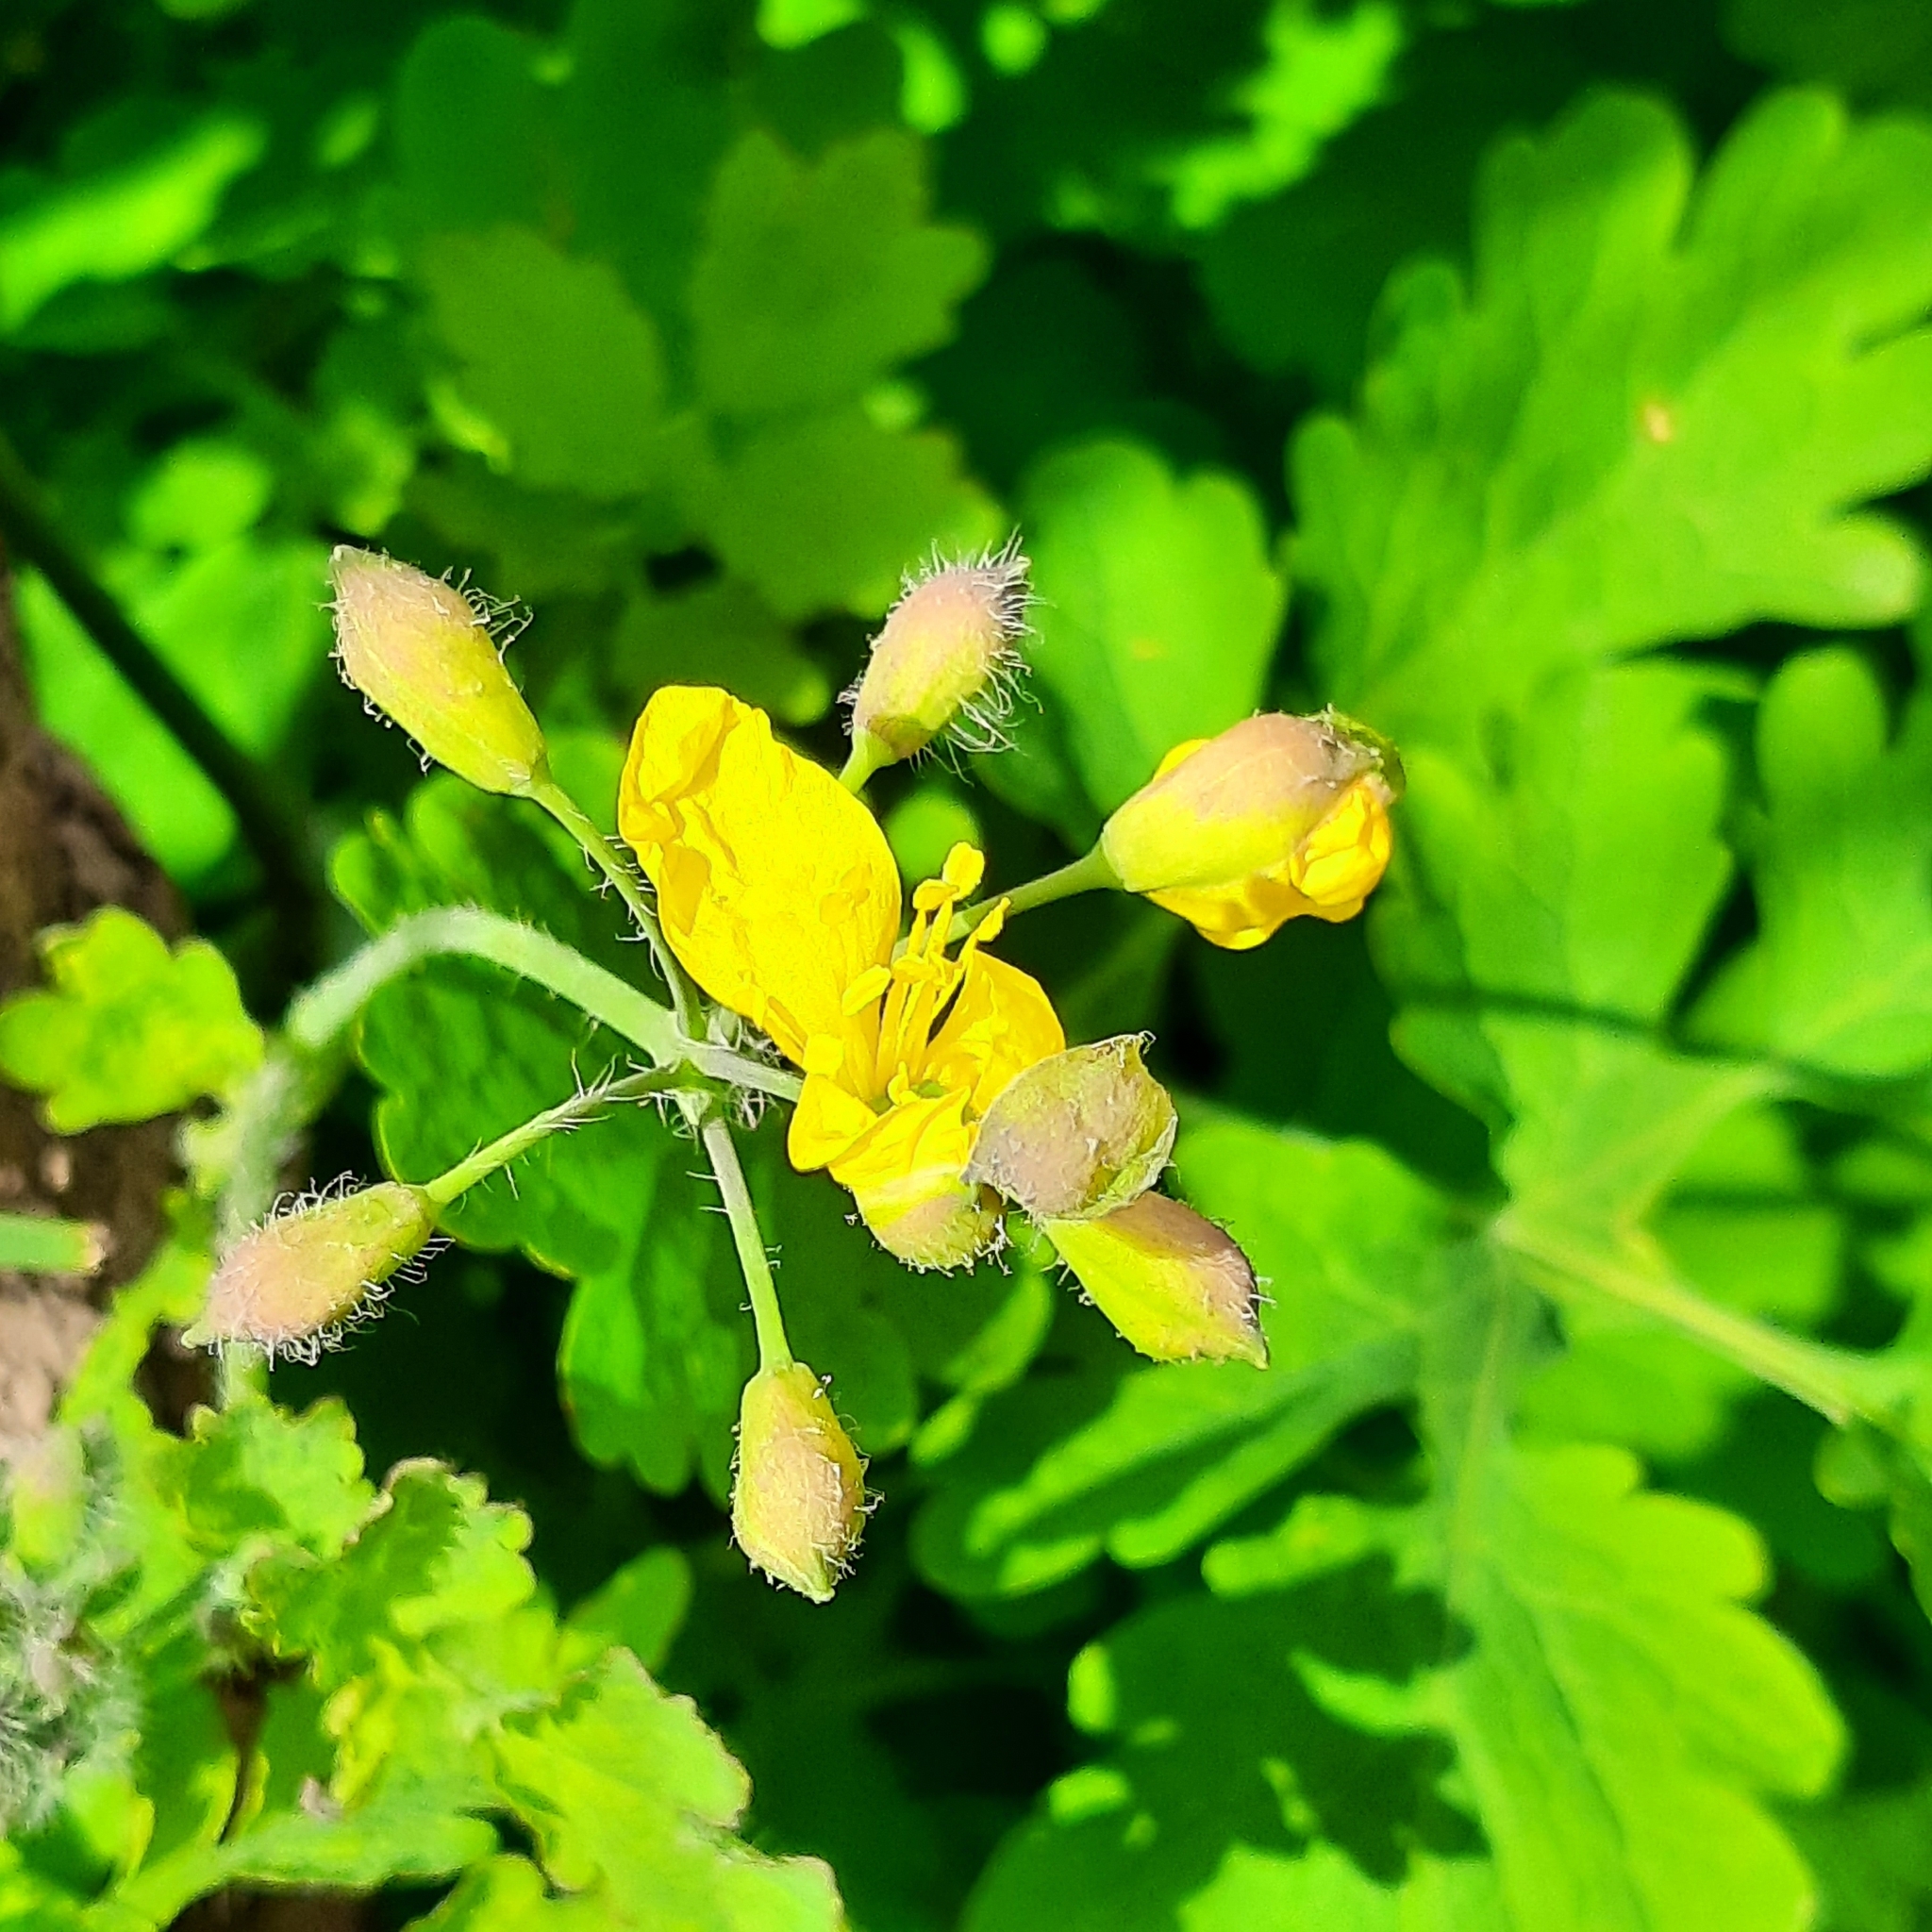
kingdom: Plantae
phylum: Tracheophyta
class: Magnoliopsida
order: Ranunculales
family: Papaveraceae
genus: Chelidonium
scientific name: Chelidonium majus
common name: Greater celandine
